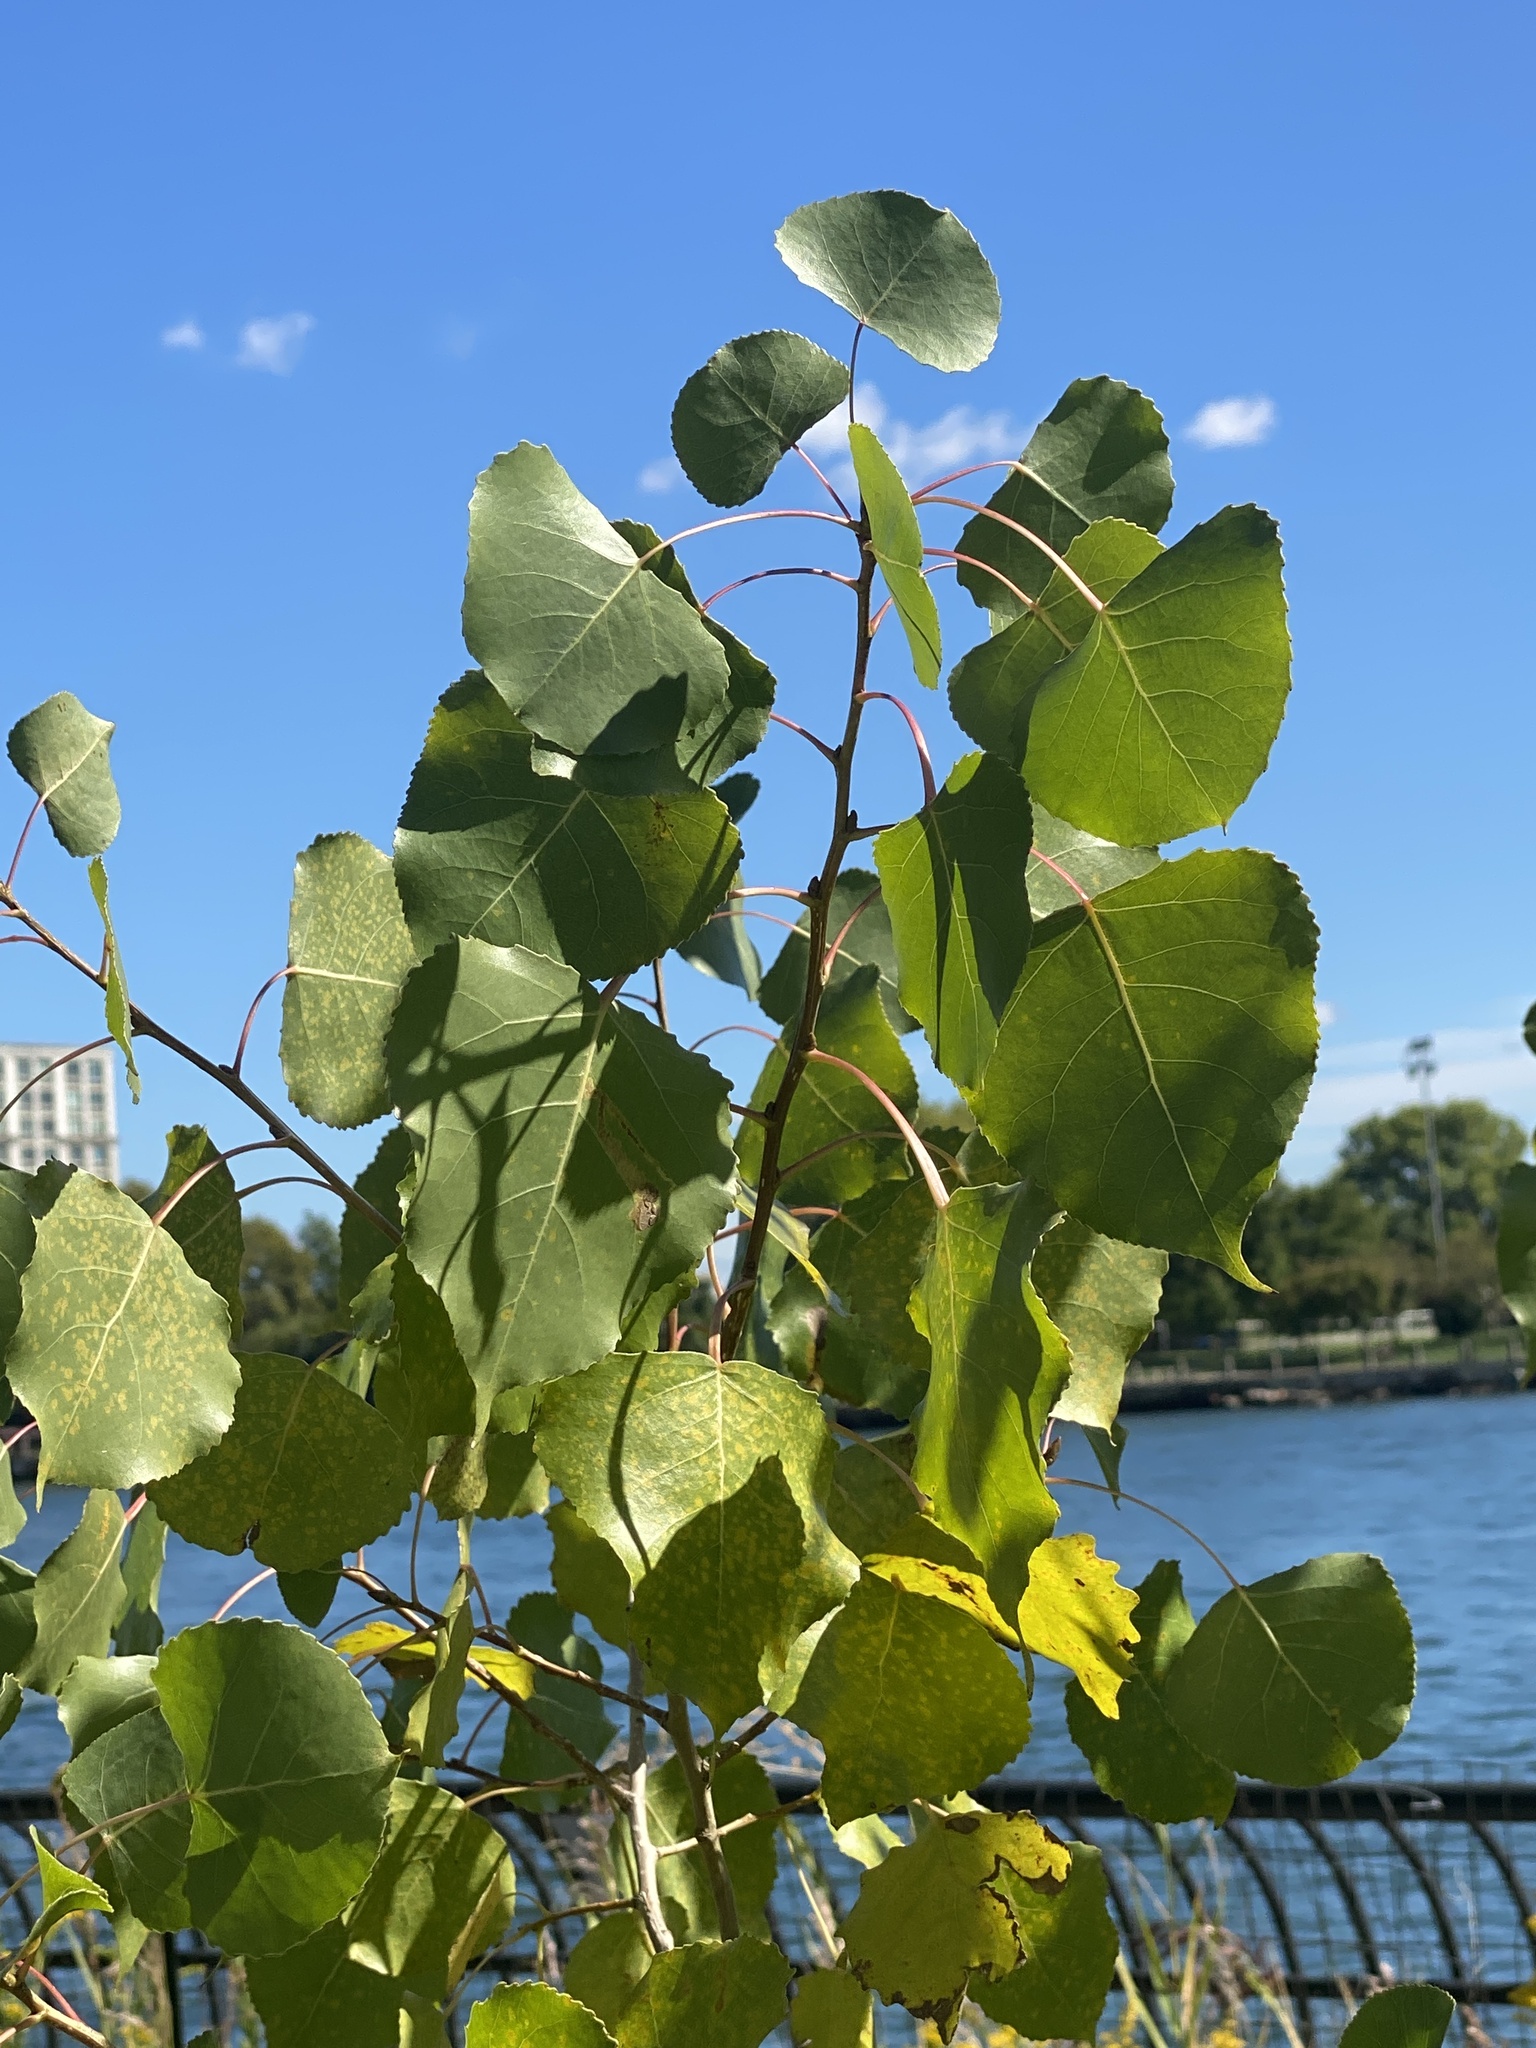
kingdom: Plantae
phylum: Tracheophyta
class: Magnoliopsida
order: Malpighiales
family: Salicaceae
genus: Populus
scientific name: Populus deltoides
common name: Eastern cottonwood
